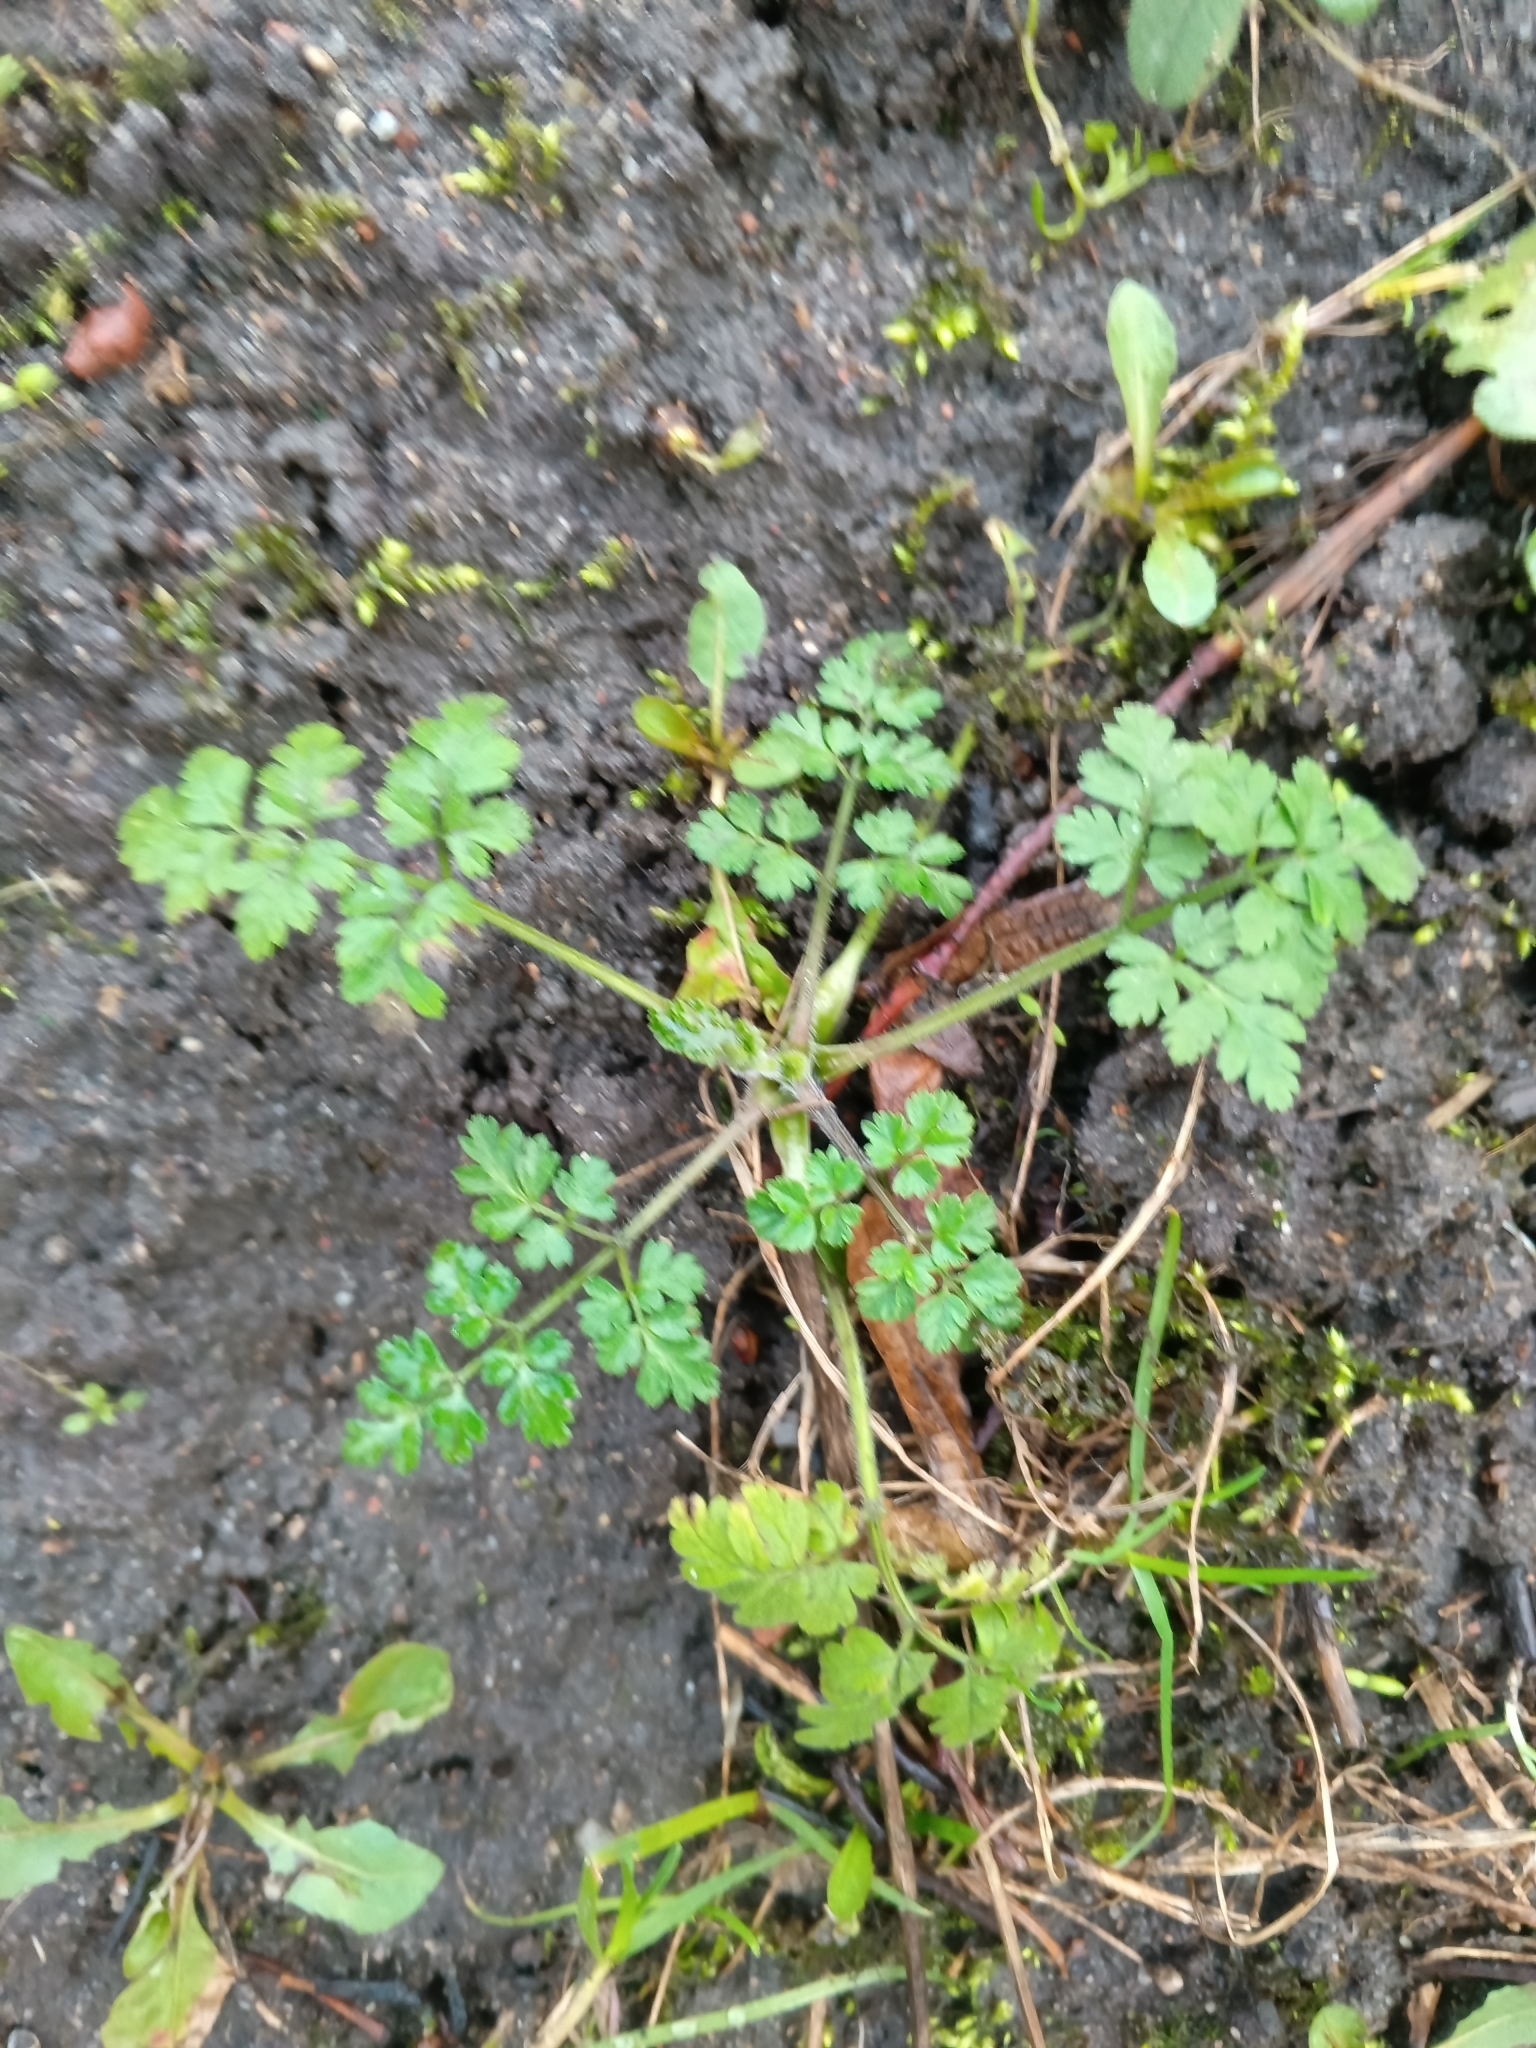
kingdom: Plantae
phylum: Tracheophyta
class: Magnoliopsida
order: Apiales
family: Apiaceae
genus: Chaerophyllum
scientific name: Chaerophyllum temulum
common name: Rough chervil
